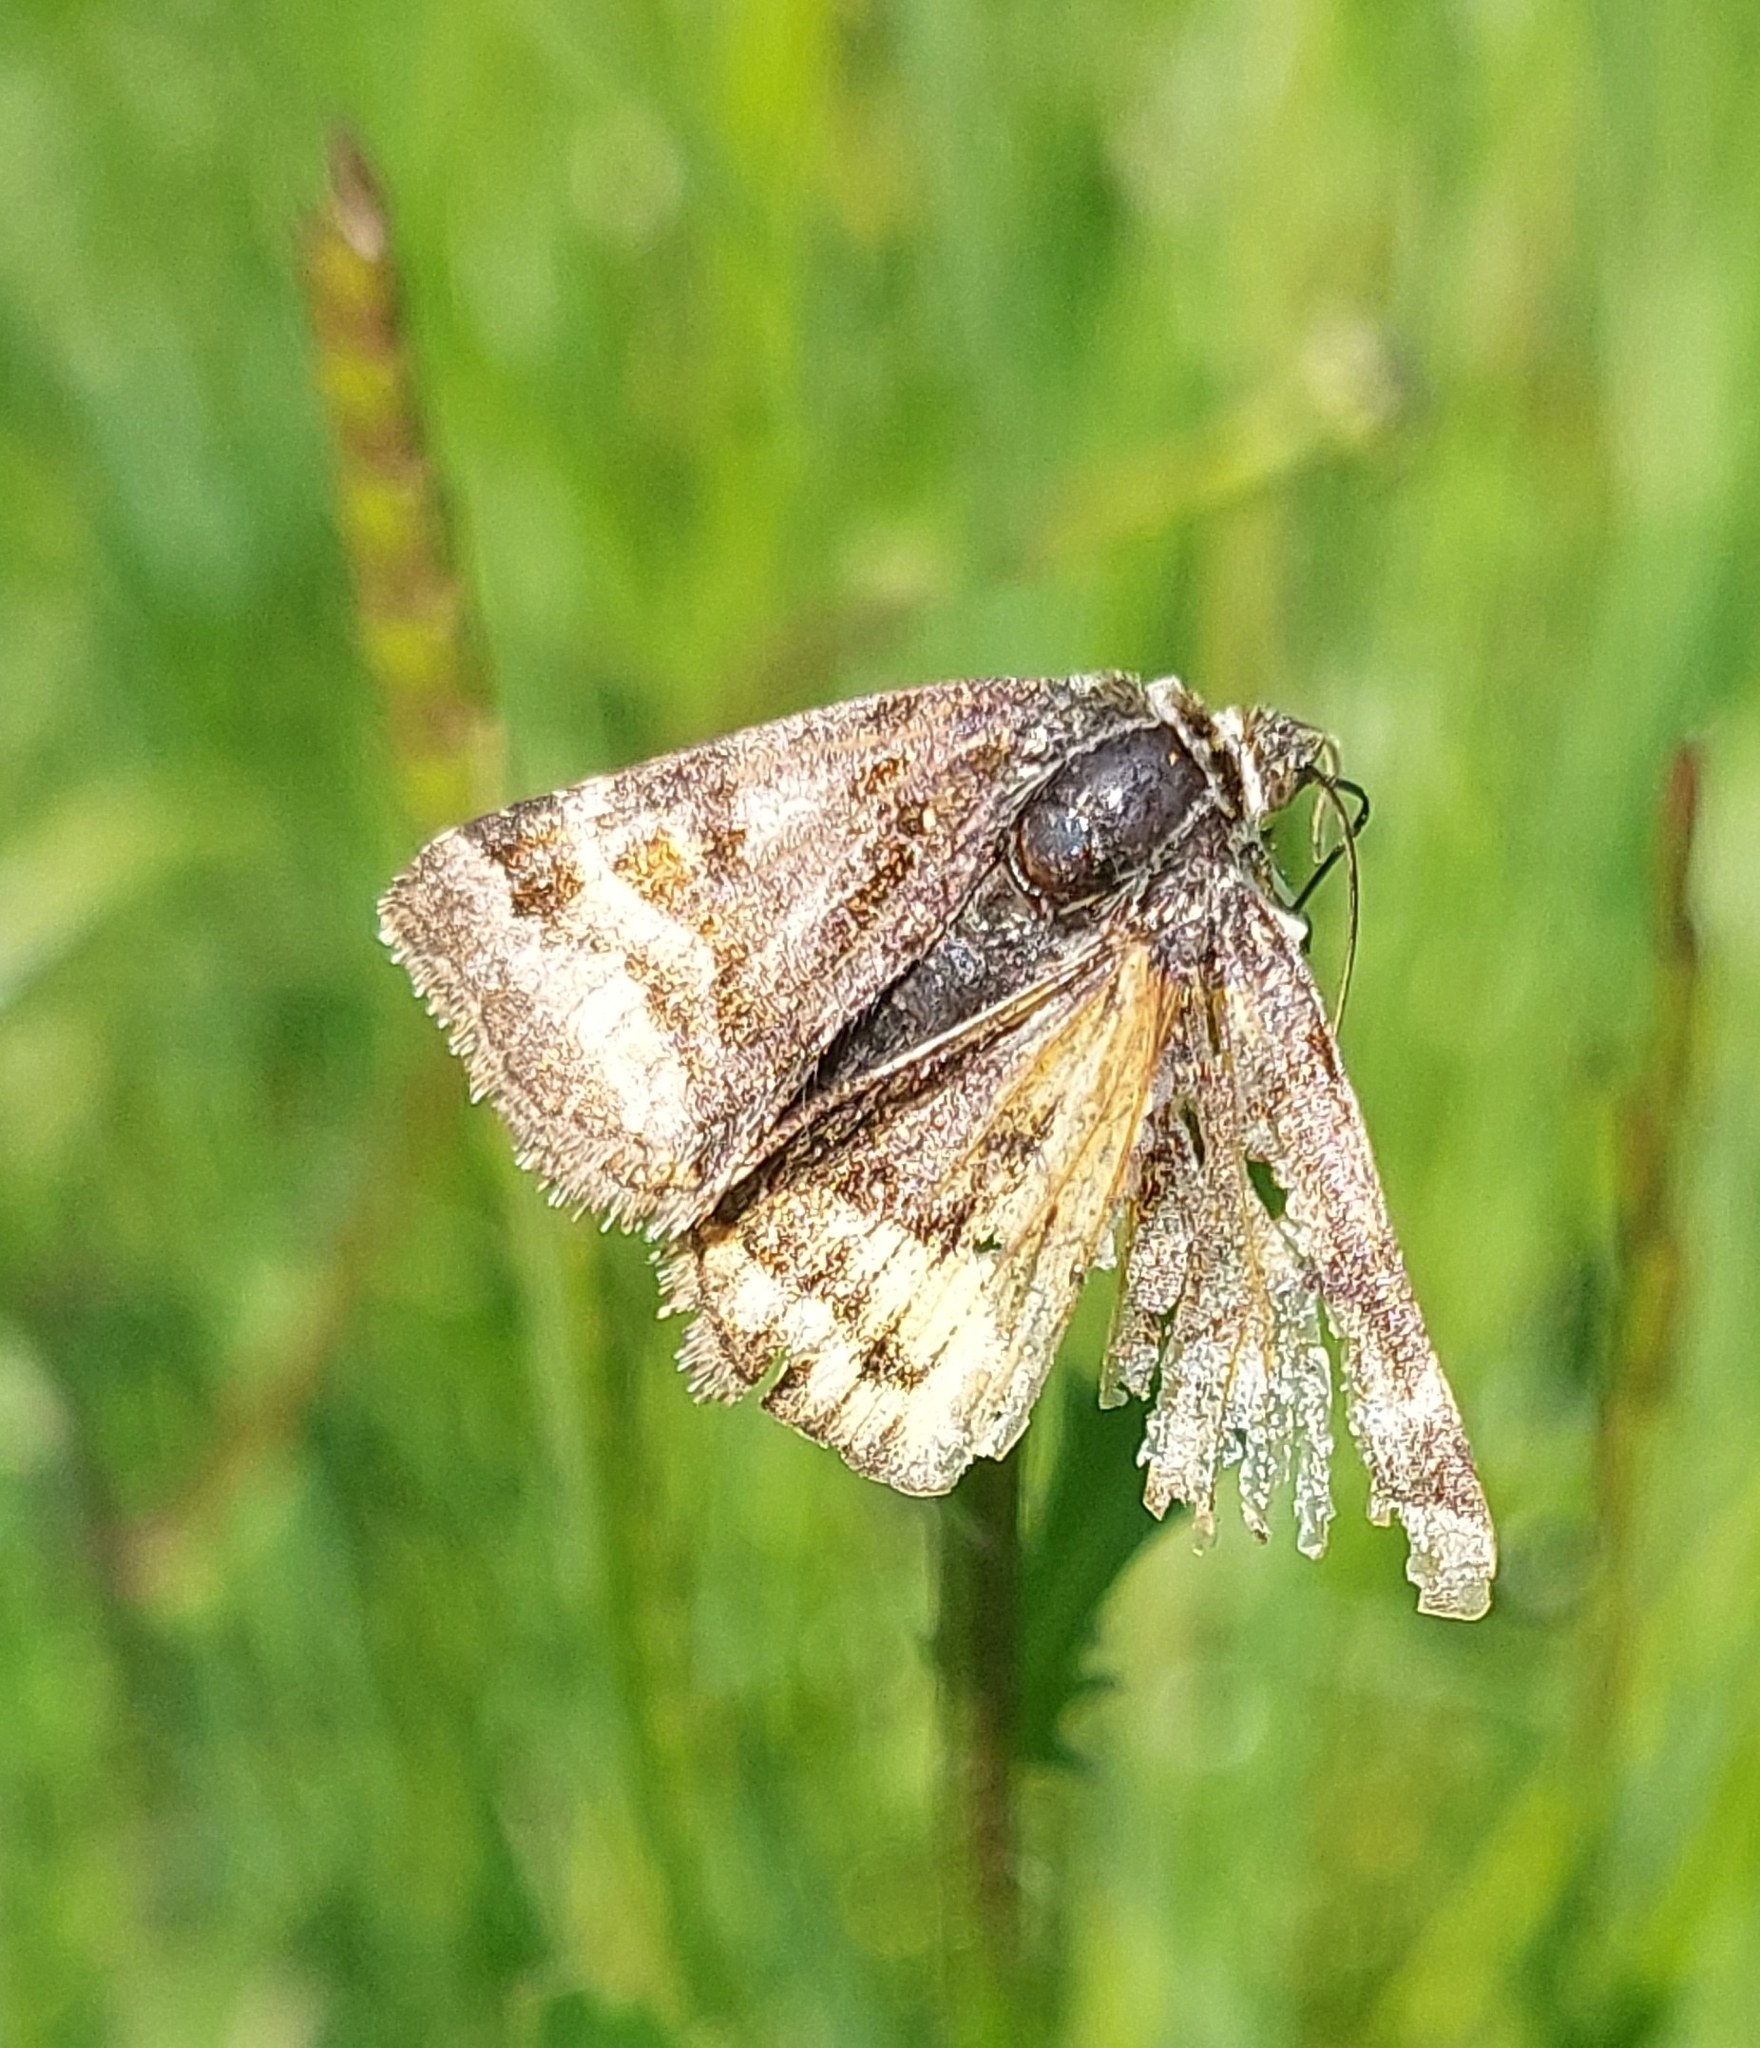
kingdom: Animalia
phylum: Arthropoda
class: Insecta
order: Lepidoptera
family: Erebidae
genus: Euclidia
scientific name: Euclidia glyphica
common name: Burnet companion
